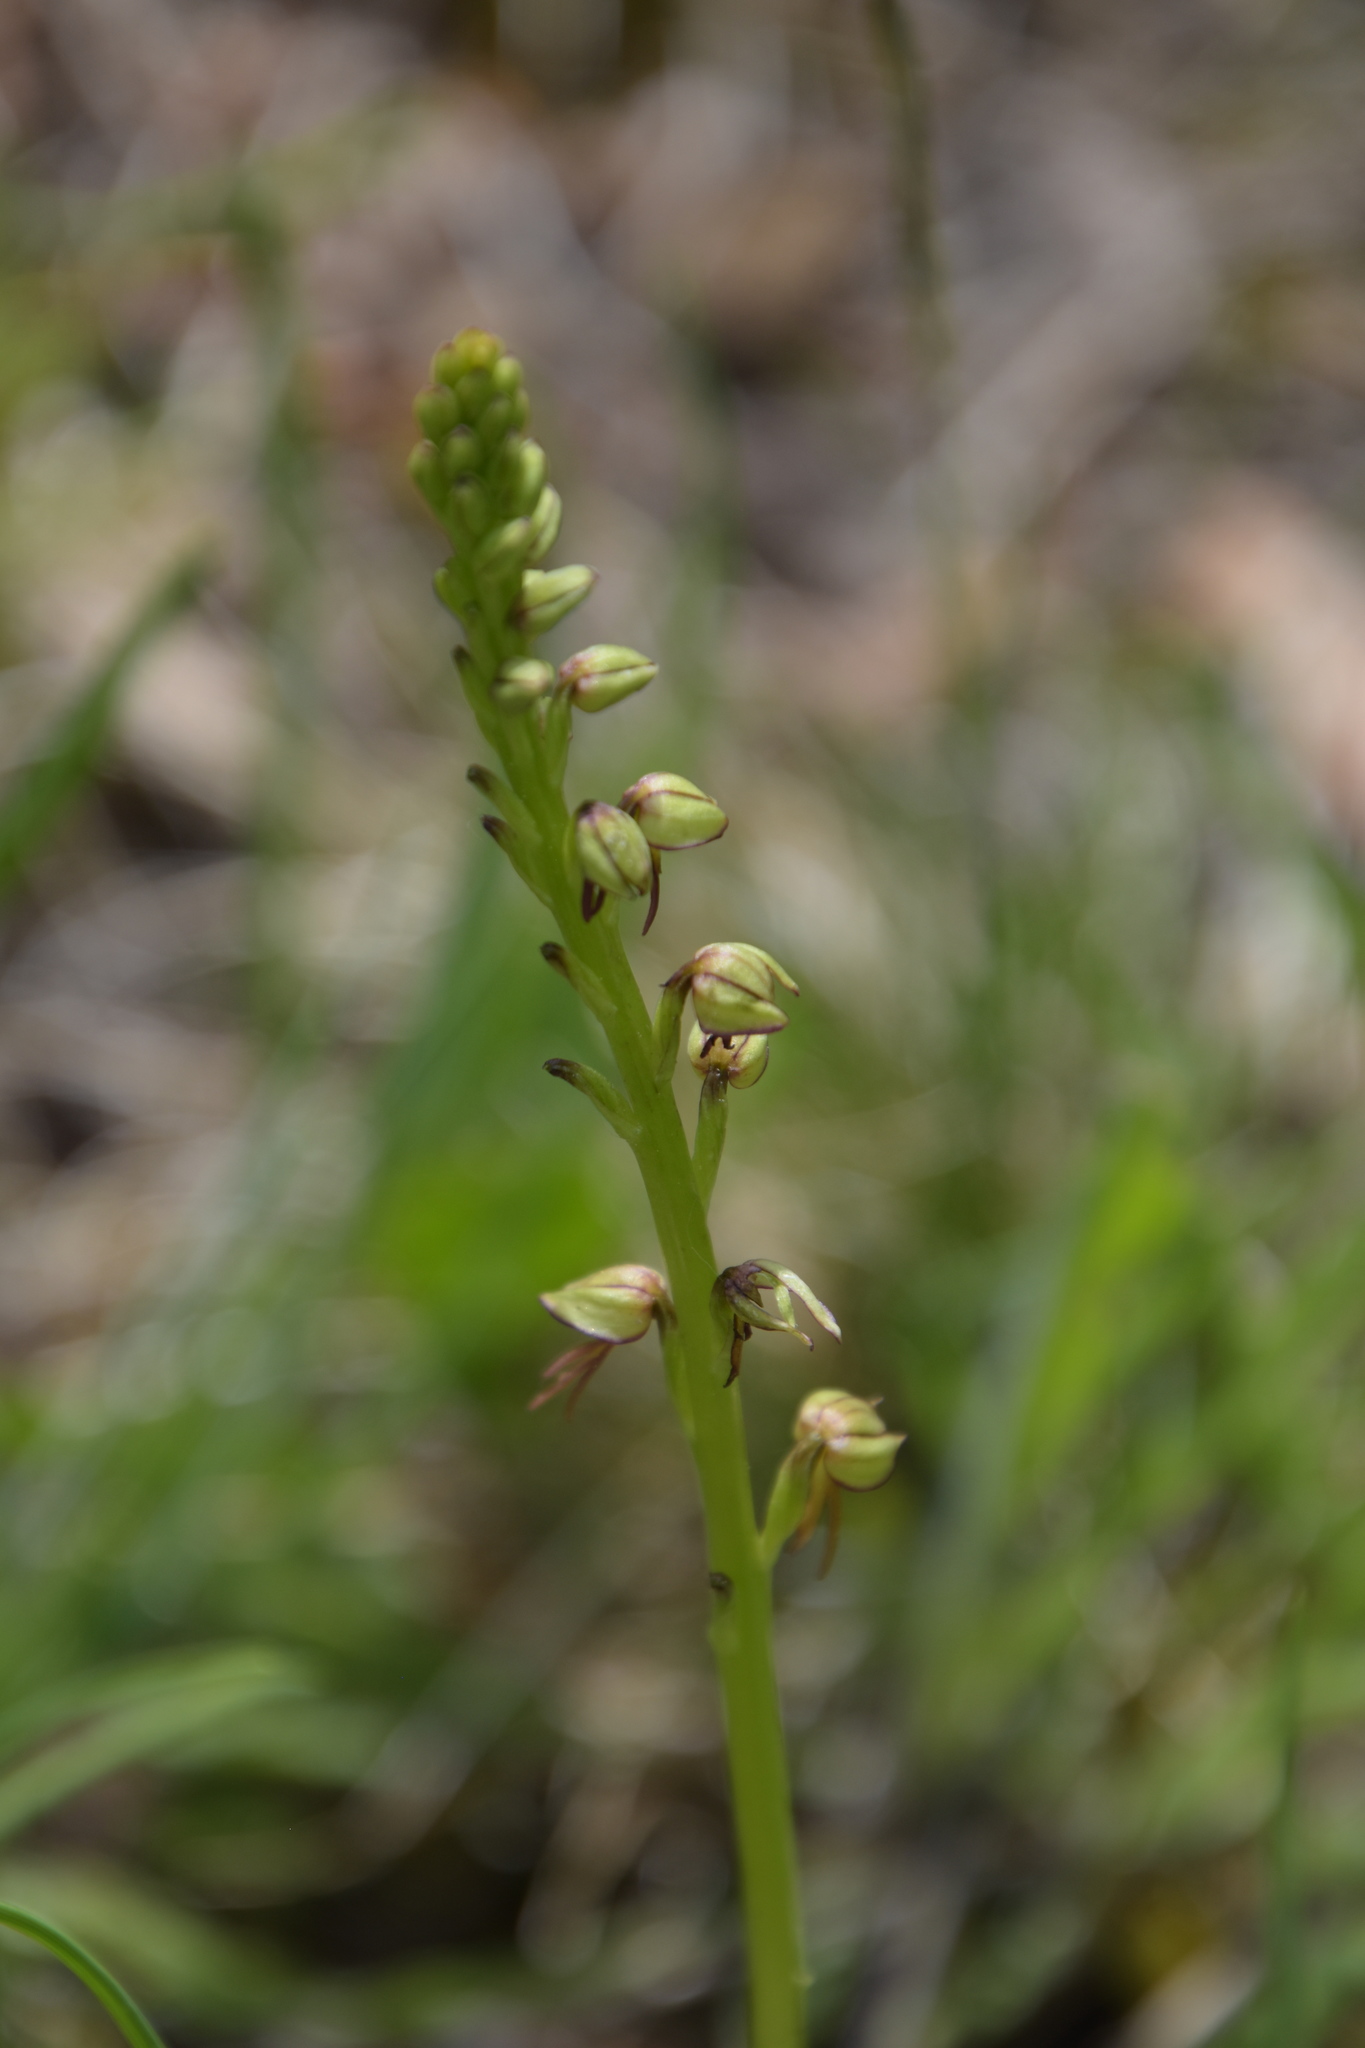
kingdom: Plantae
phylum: Tracheophyta
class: Liliopsida
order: Asparagales
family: Orchidaceae
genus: Orchis
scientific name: Orchis anthropophora
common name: Man orchid
